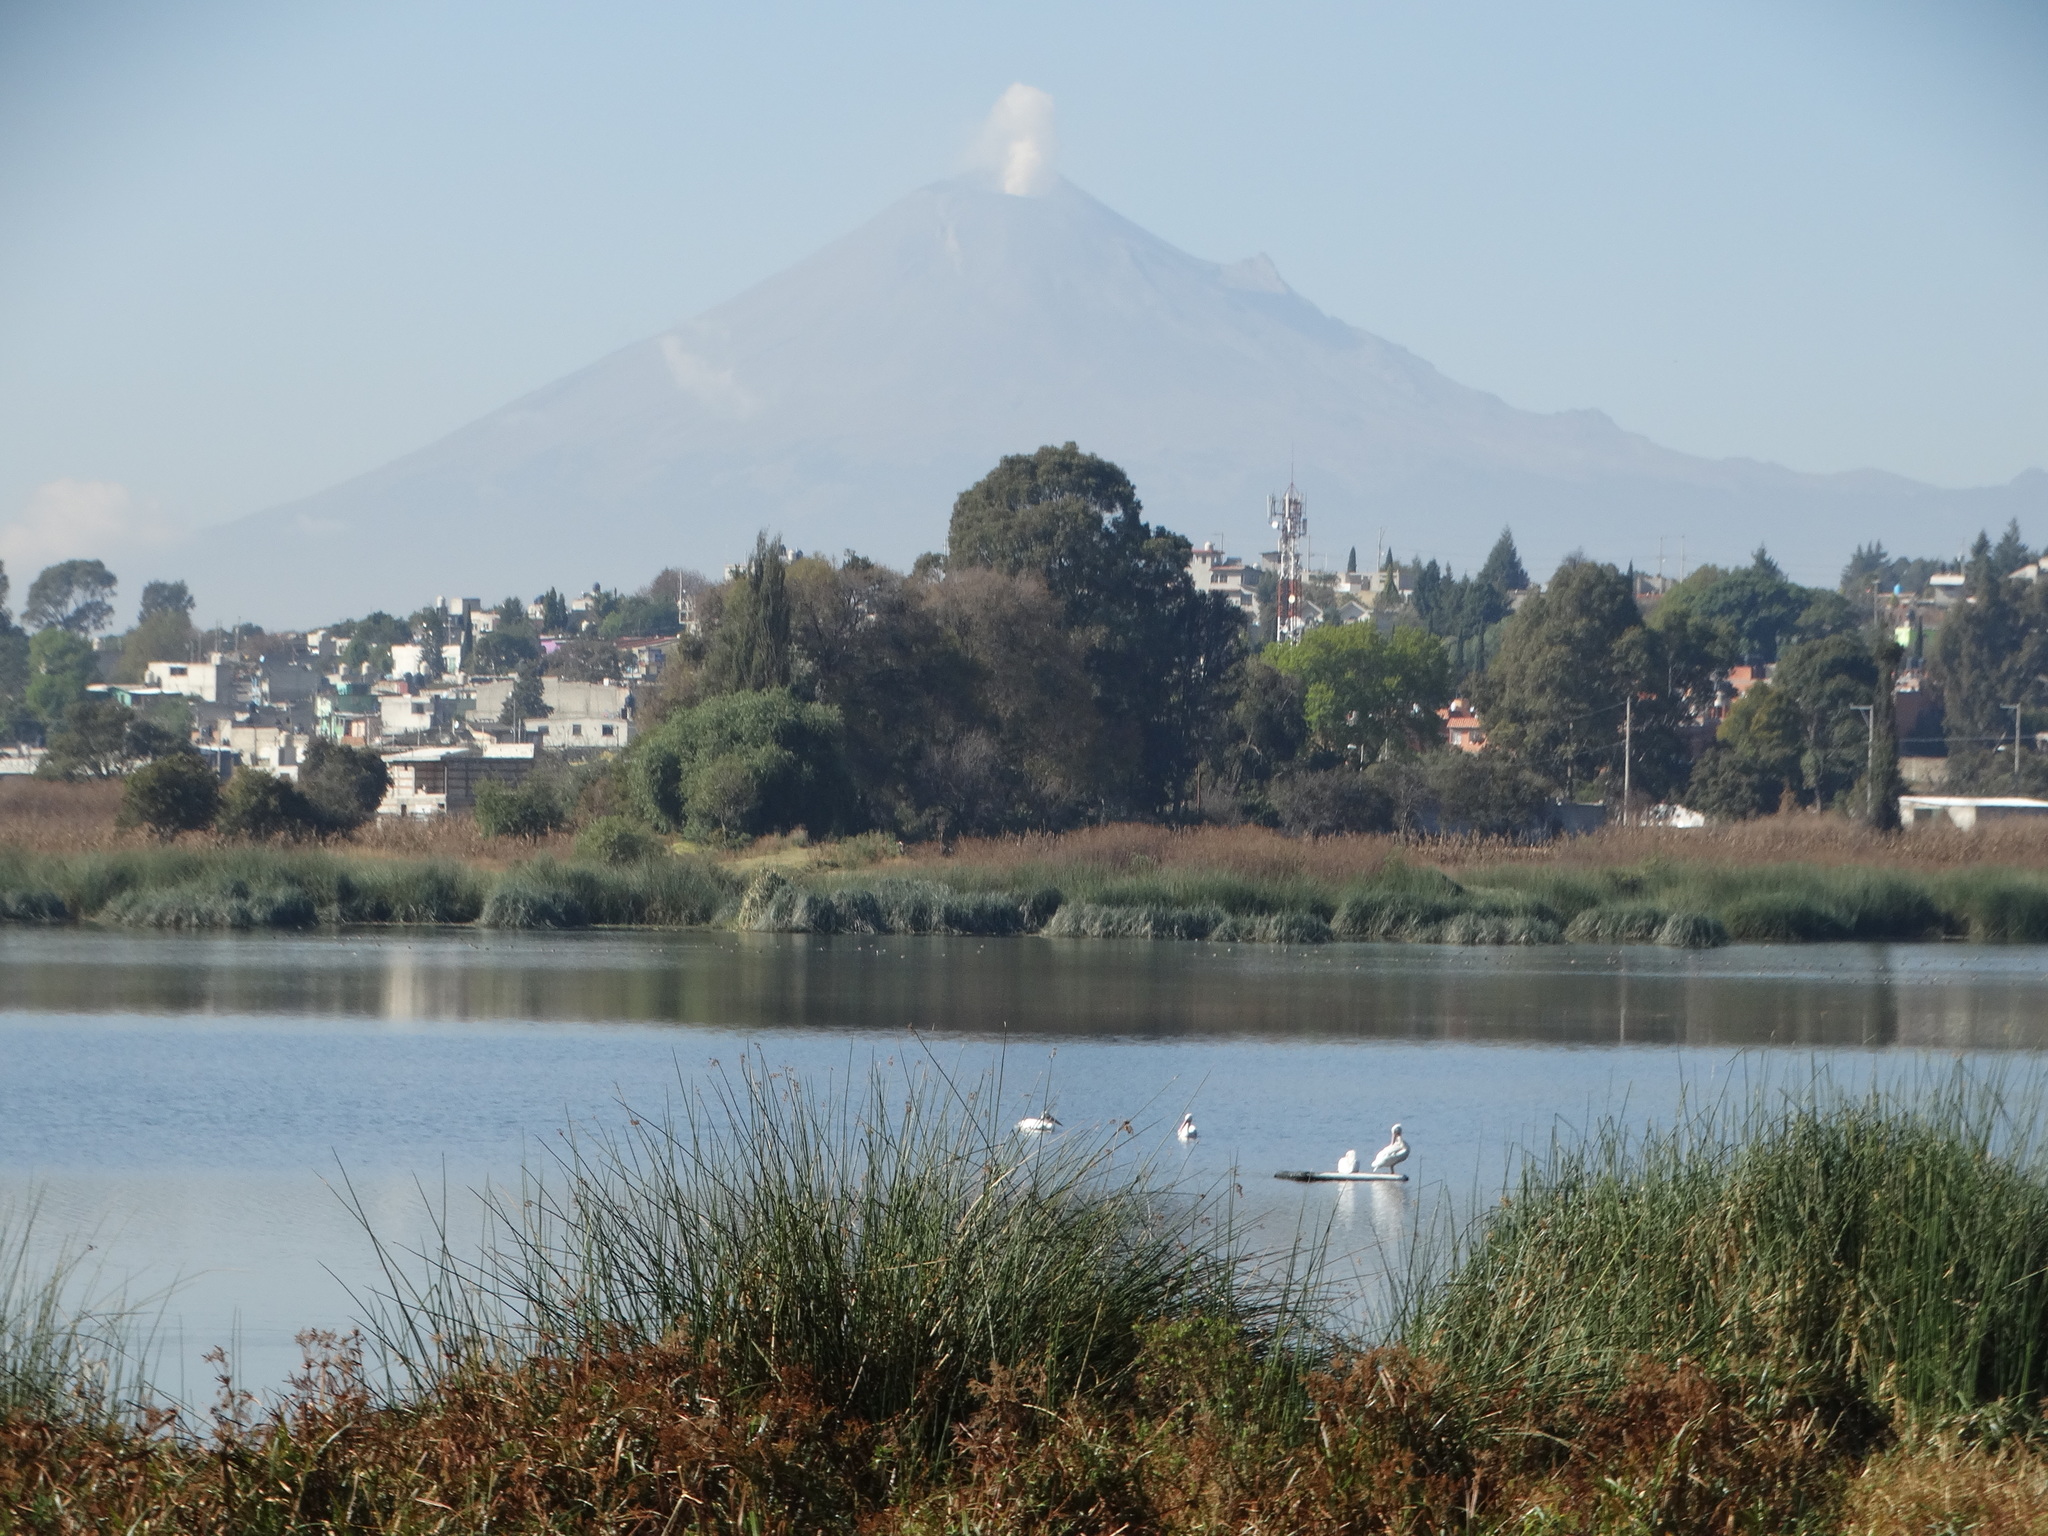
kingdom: Animalia
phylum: Chordata
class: Aves
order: Pelecaniformes
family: Pelecanidae
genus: Pelecanus
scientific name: Pelecanus erythrorhynchos
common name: American white pelican
